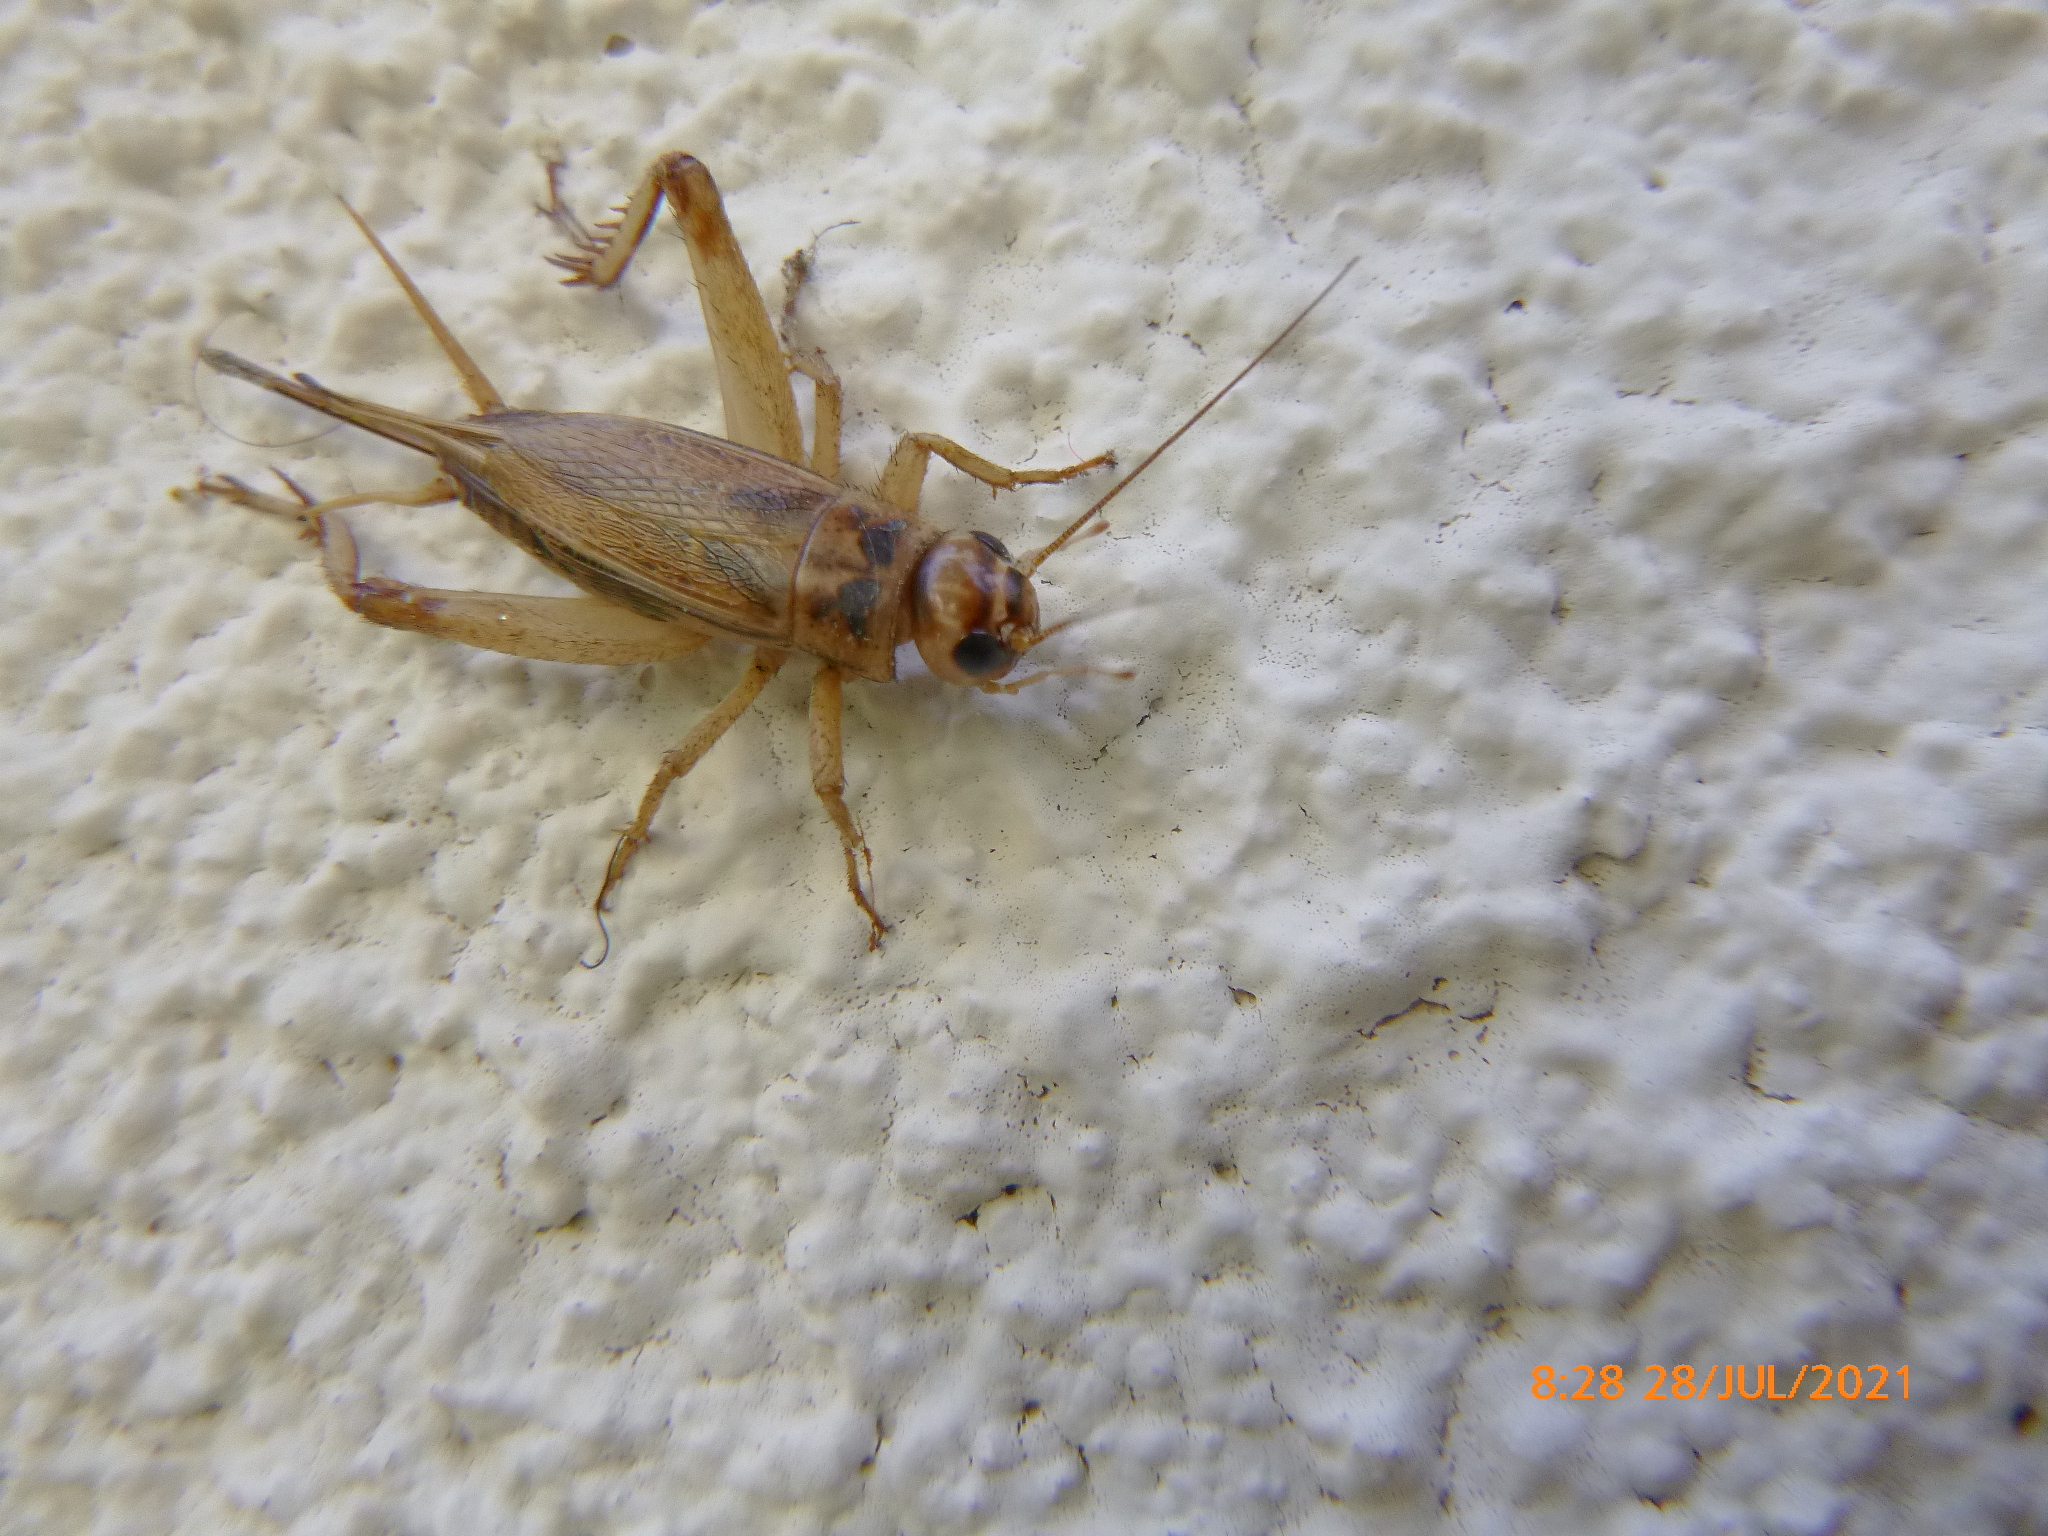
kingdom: Animalia
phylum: Arthropoda
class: Insecta
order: Orthoptera
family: Gryllidae
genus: Acheta
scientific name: Acheta domesticus
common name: House cricket
